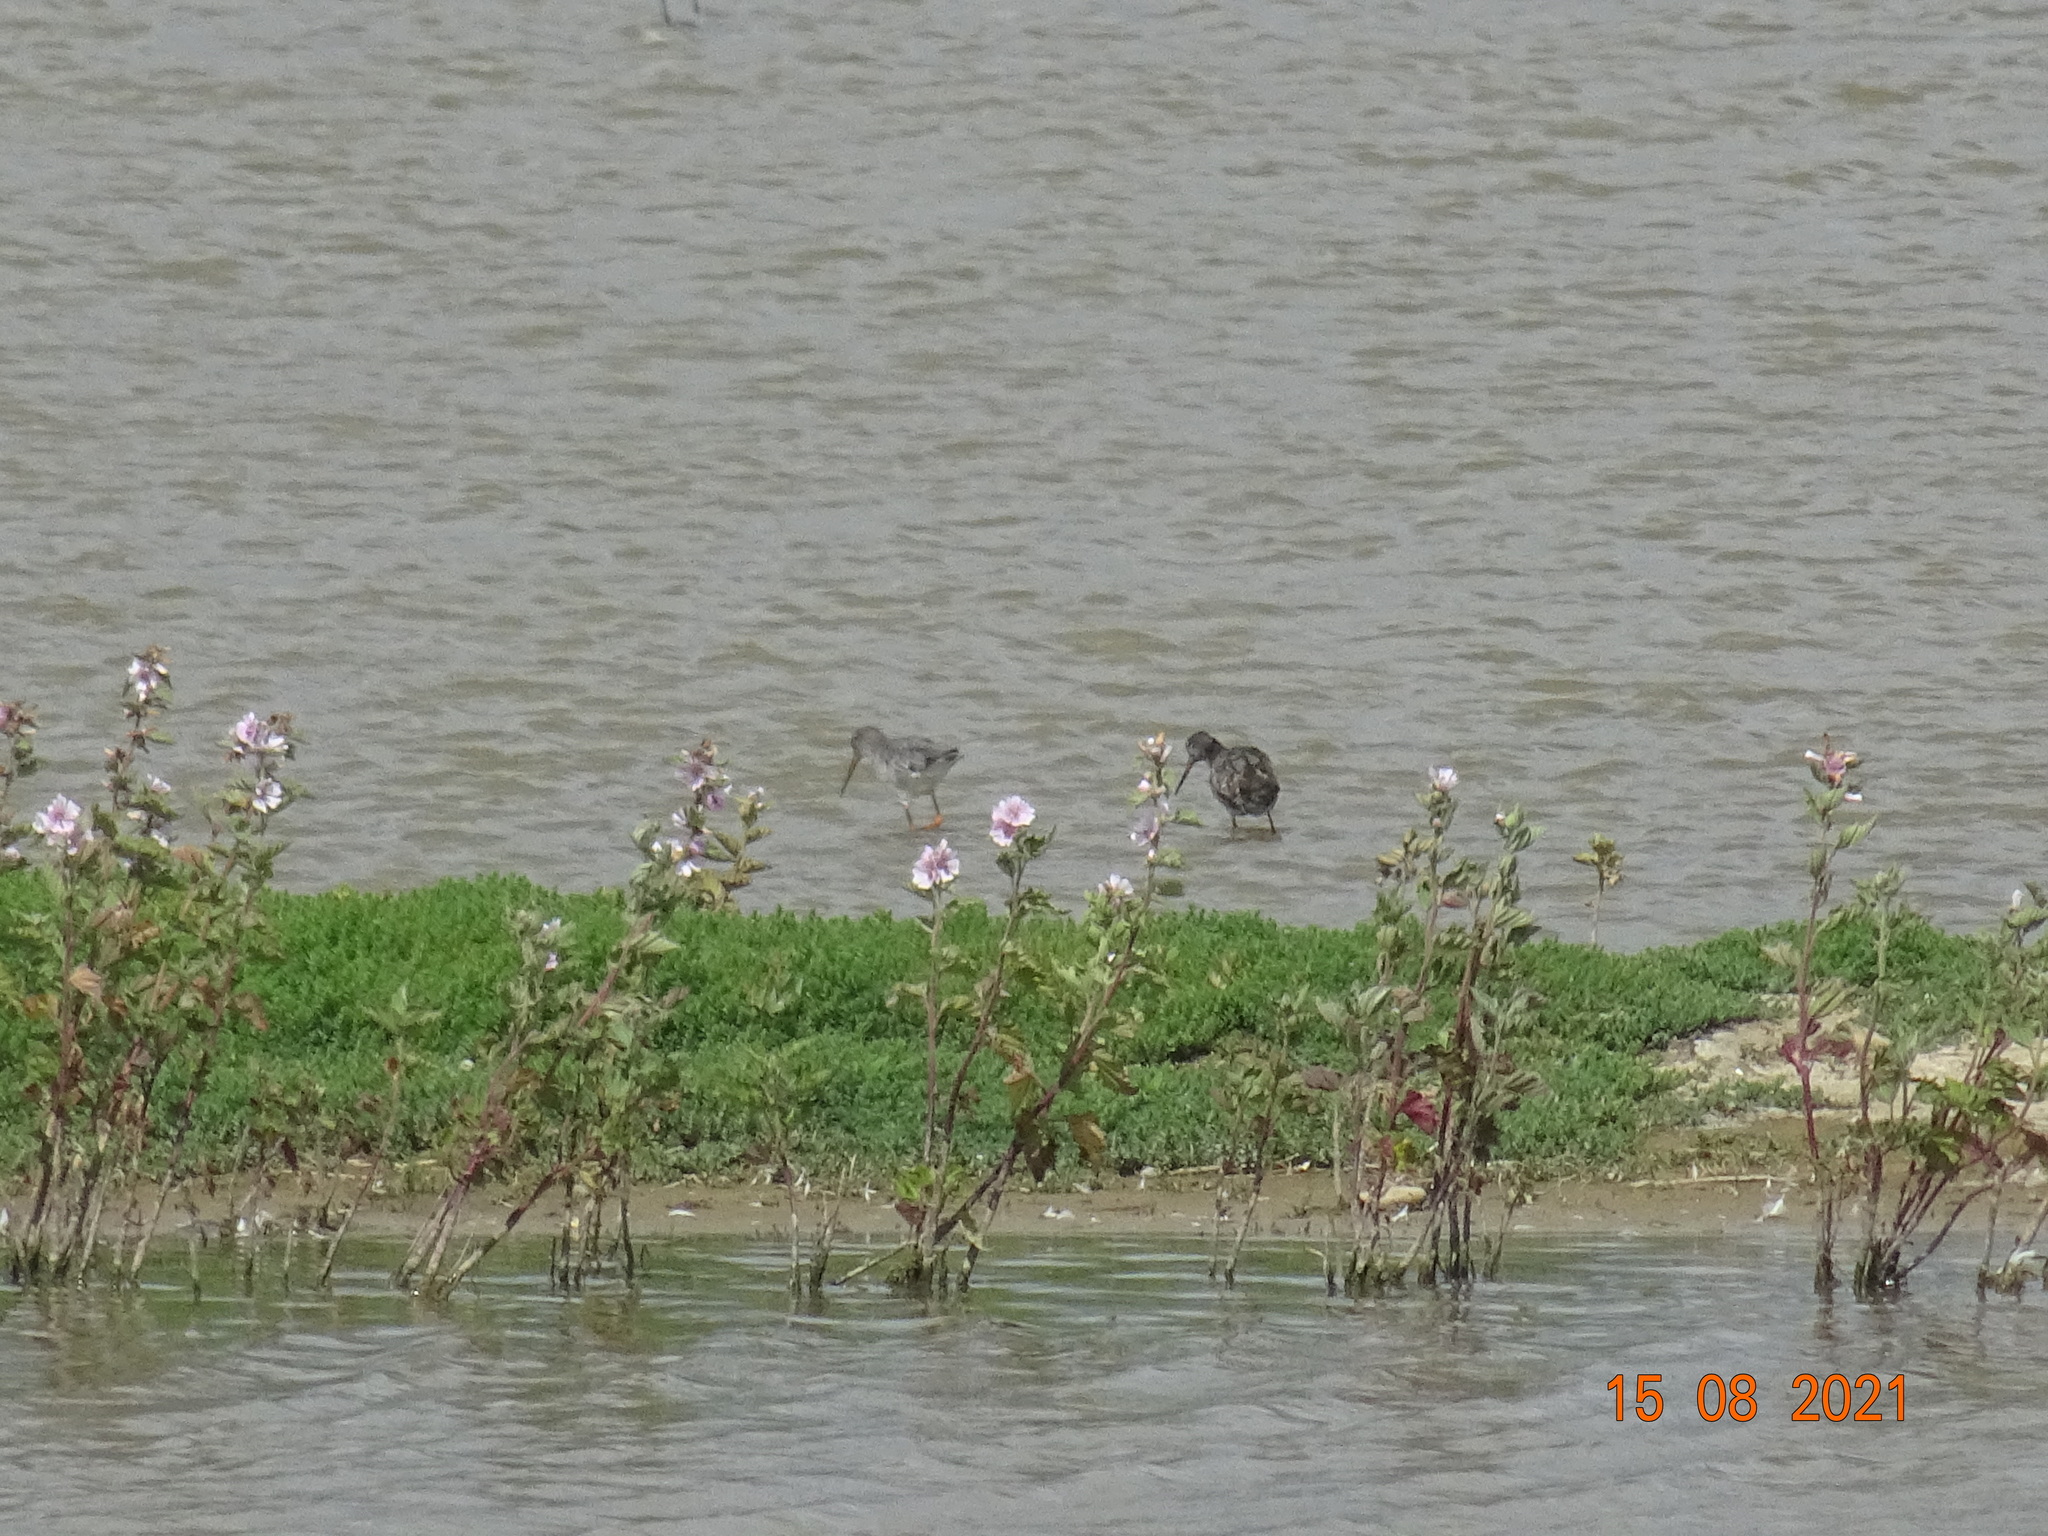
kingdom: Animalia
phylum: Chordata
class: Aves
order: Charadriiformes
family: Scolopacidae
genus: Tringa
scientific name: Tringa erythropus
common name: Spotted redshank
